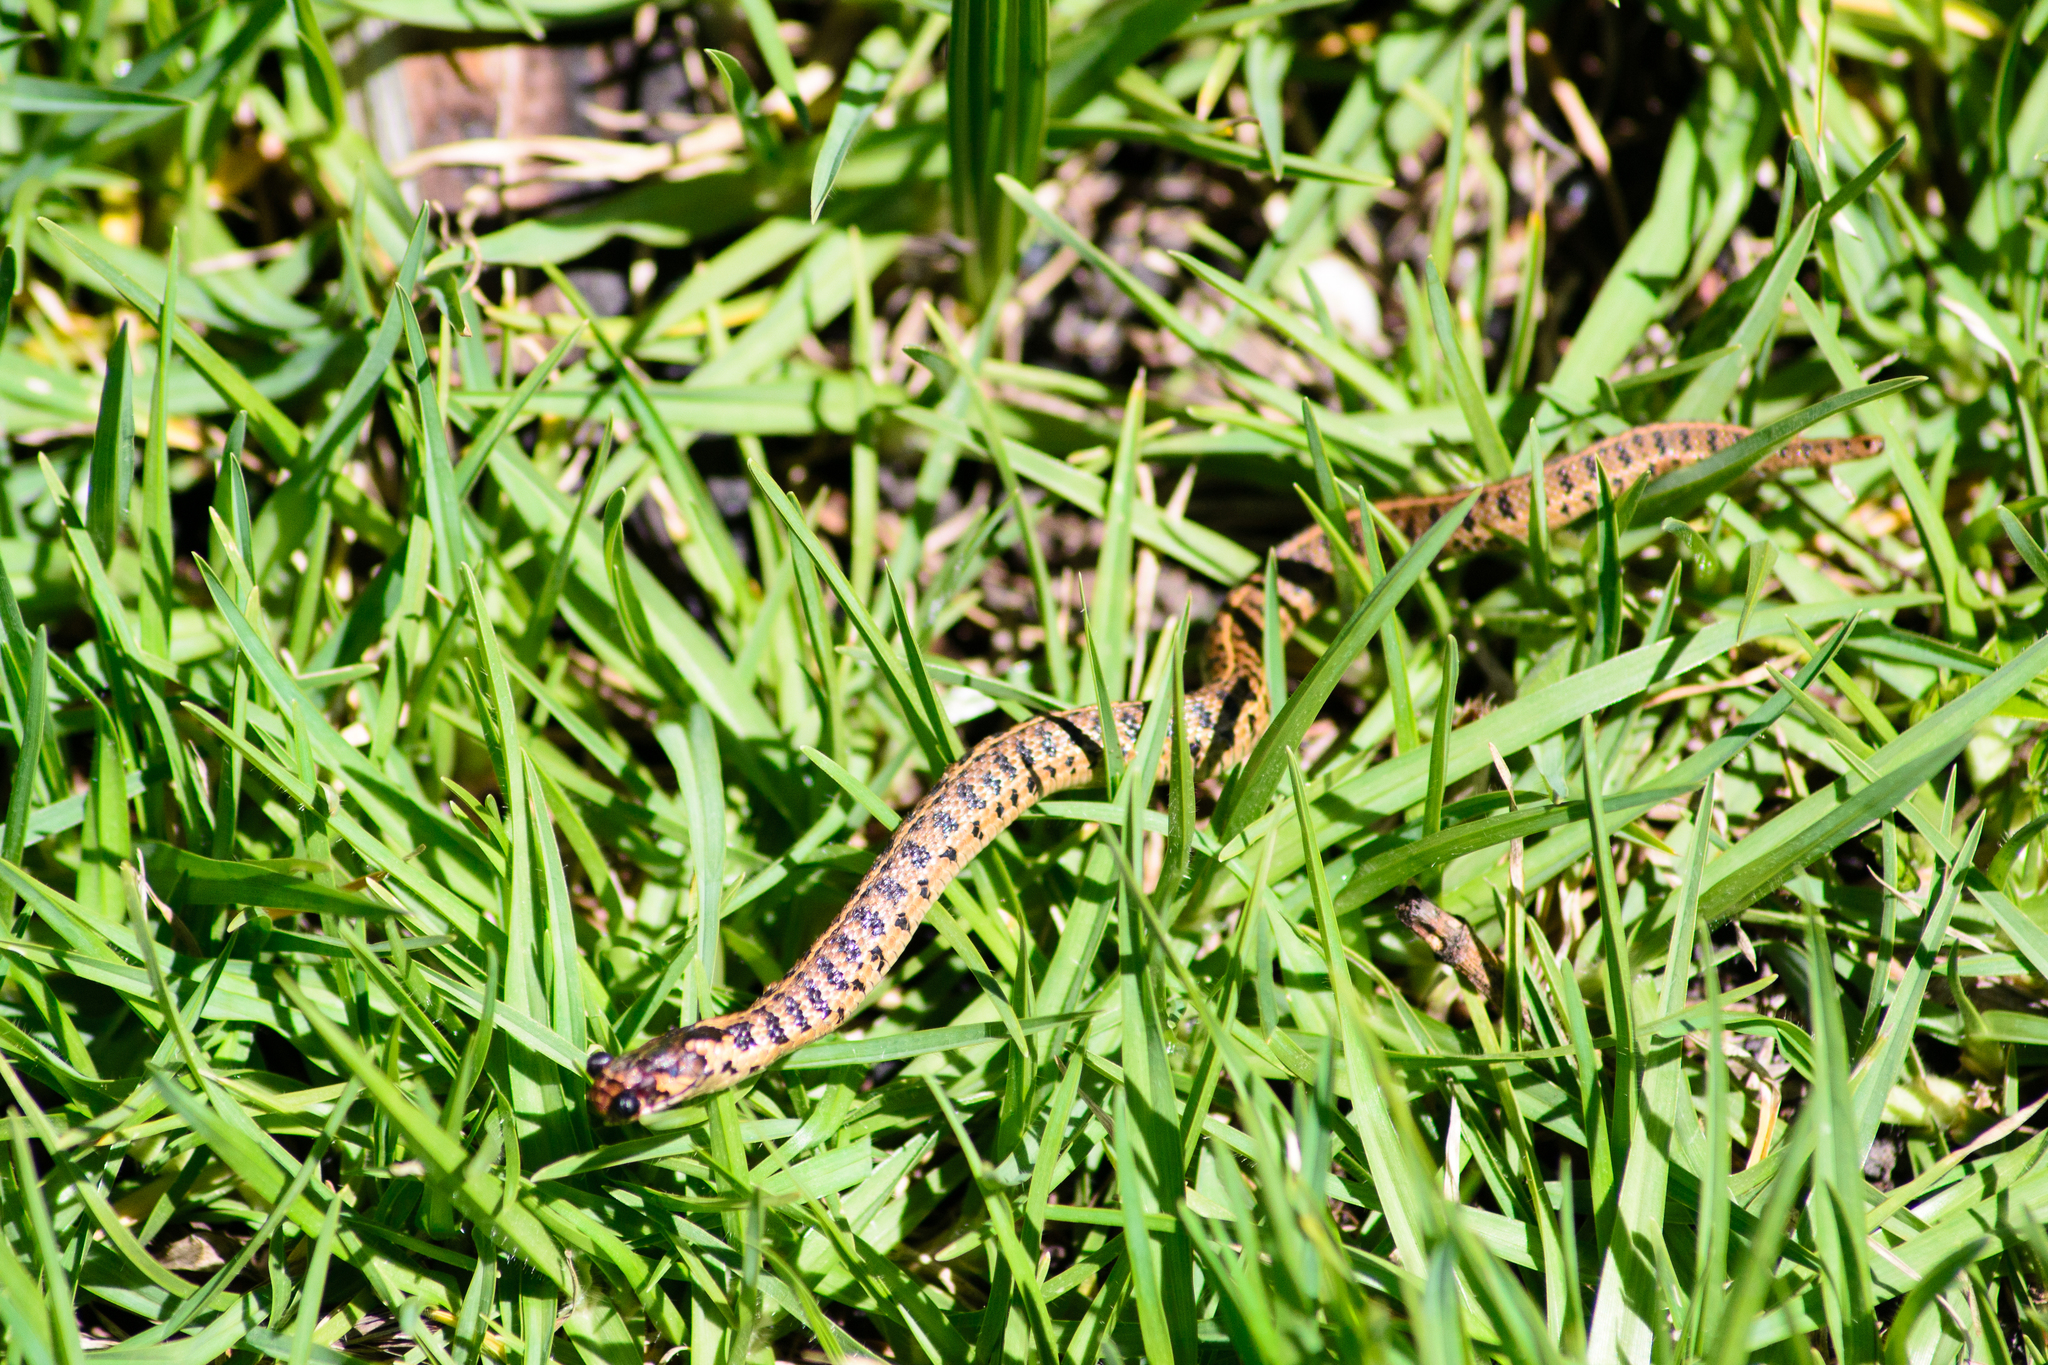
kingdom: Animalia
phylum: Chordata
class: Squamata
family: Colubridae
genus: Thamnophis
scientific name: Thamnophis scaliger
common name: Short-tail alpine garter snake
